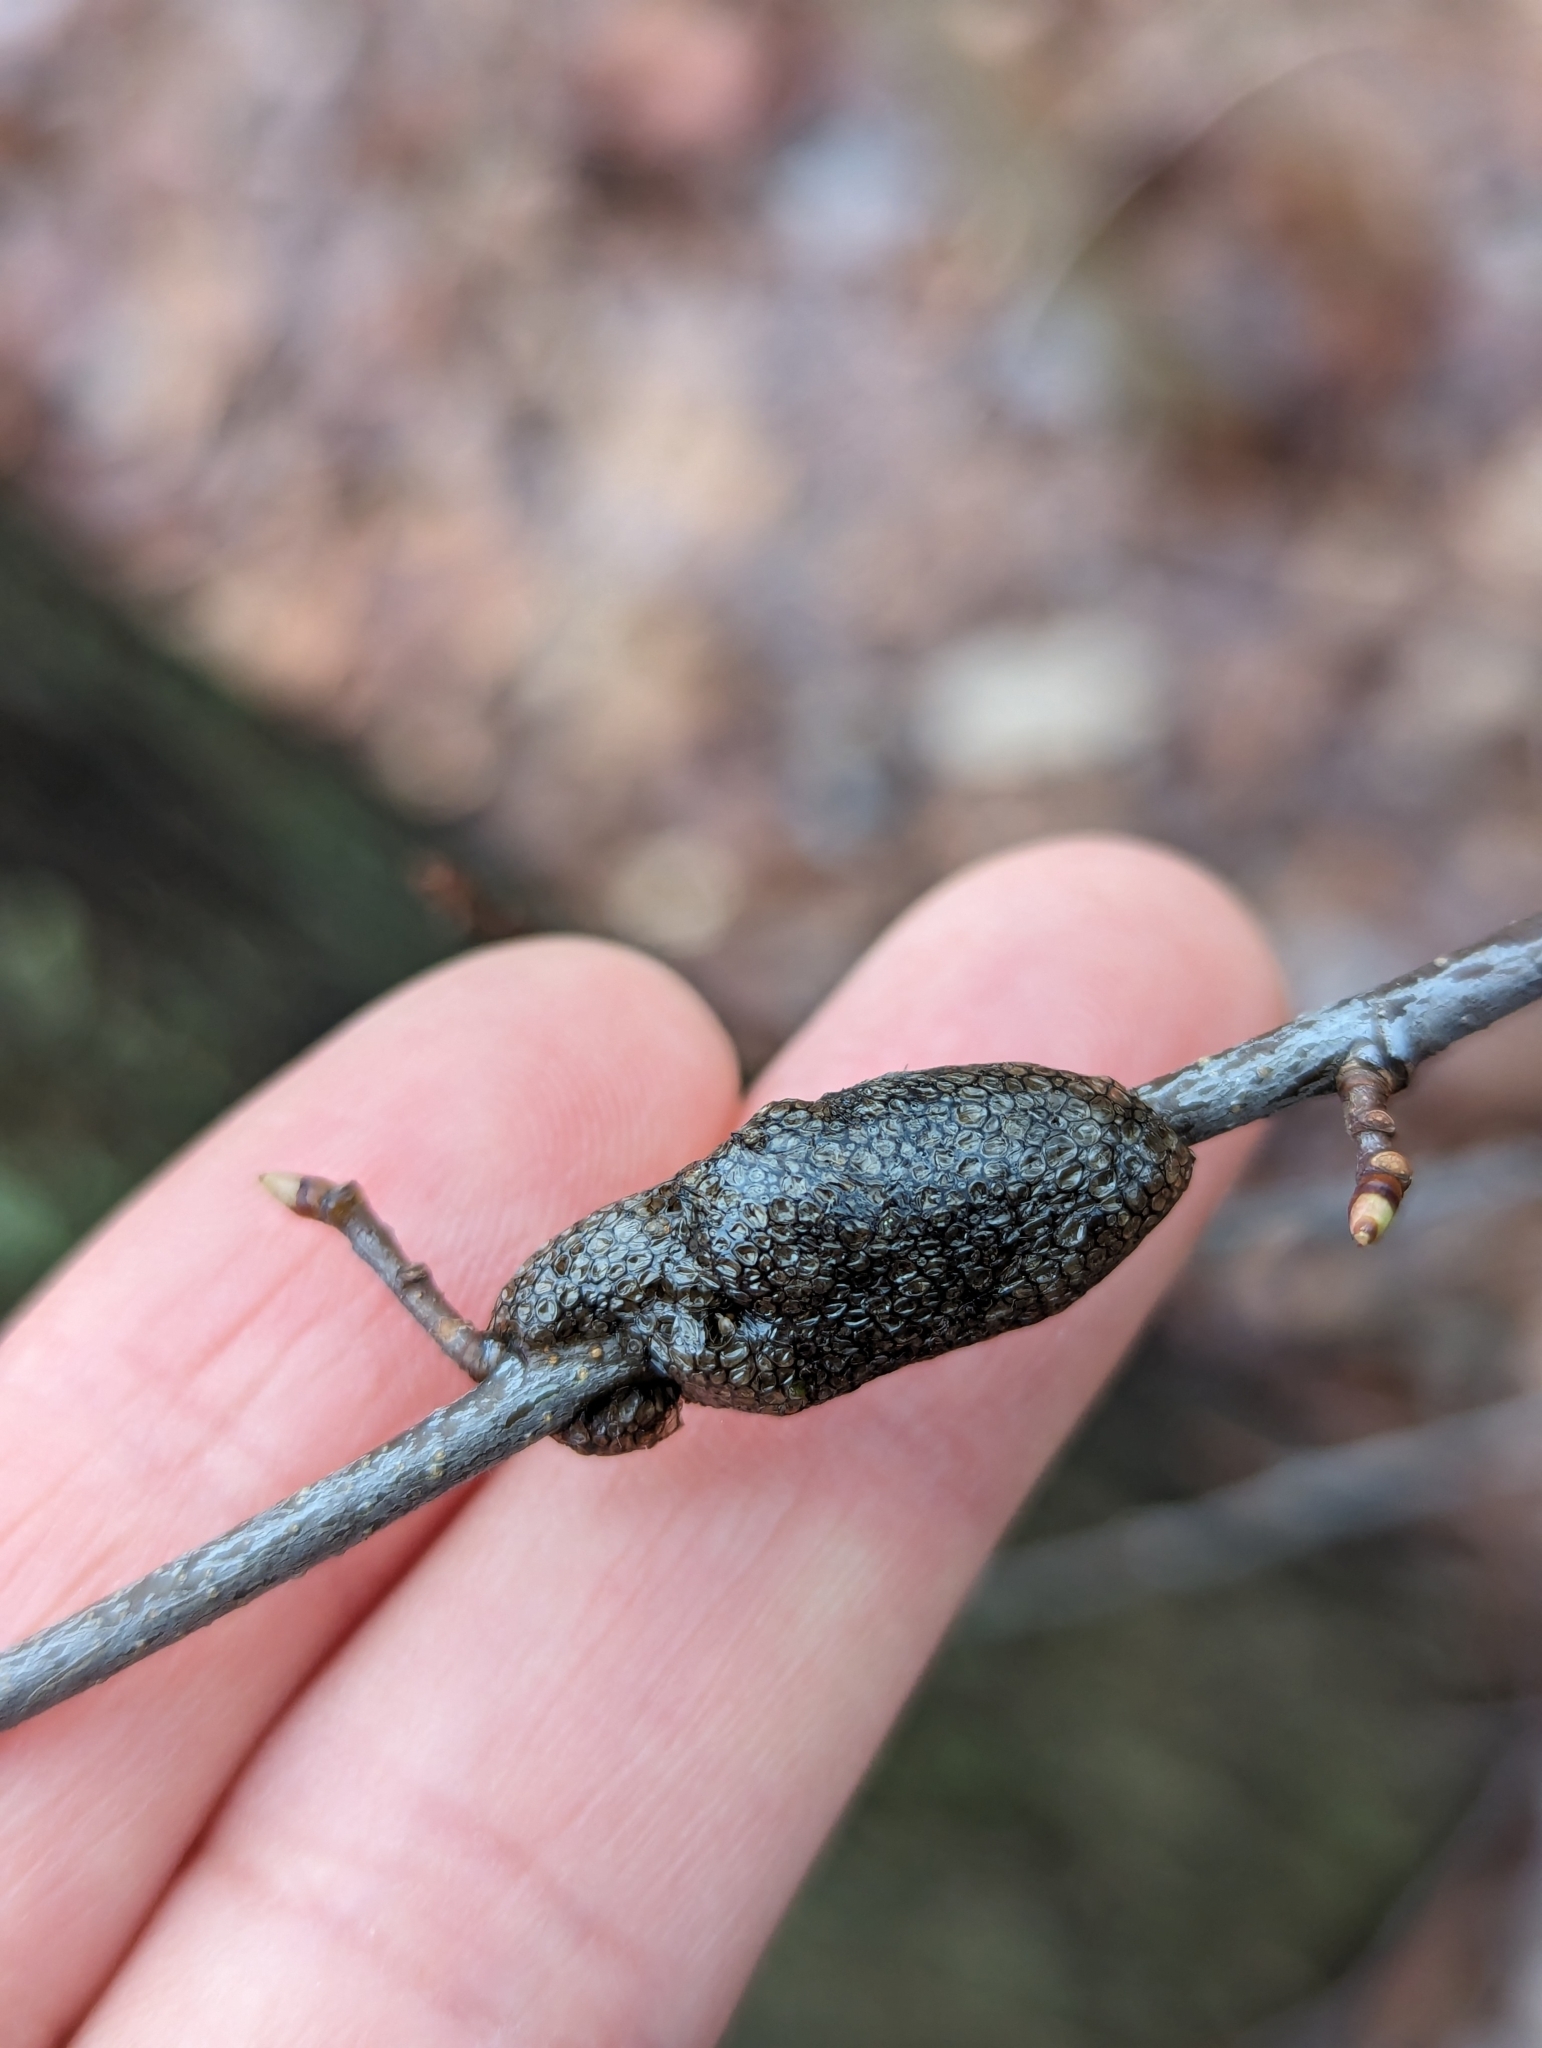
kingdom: Animalia
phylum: Arthropoda
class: Insecta
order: Lepidoptera
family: Lasiocampidae
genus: Malacosoma
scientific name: Malacosoma americana
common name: Eastern tent caterpillar moth
